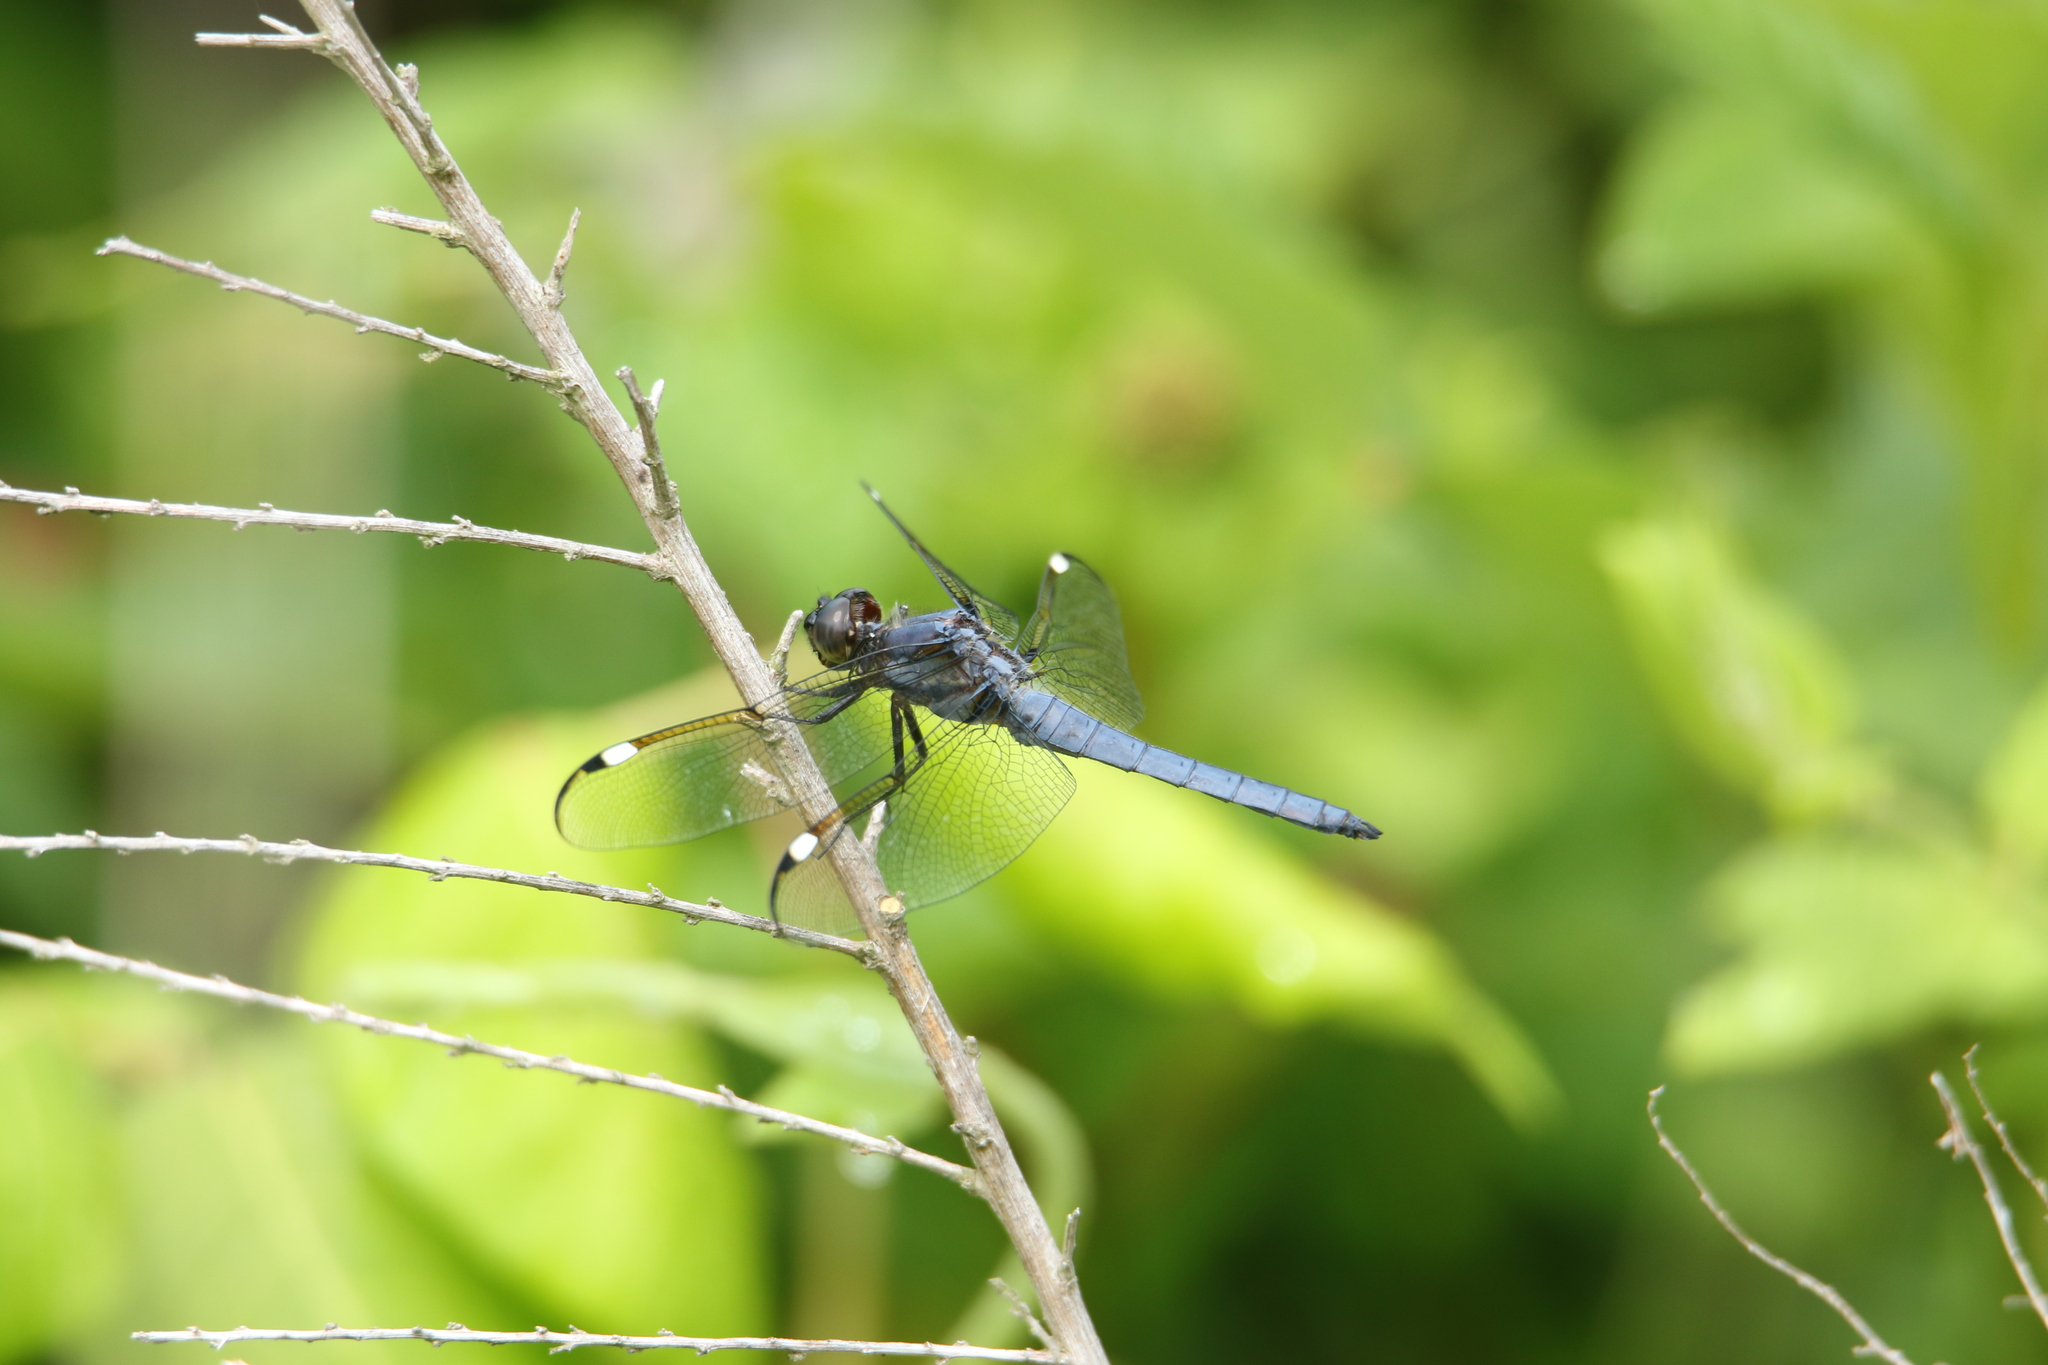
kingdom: Animalia
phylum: Arthropoda
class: Insecta
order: Odonata
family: Libellulidae
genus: Libellula
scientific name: Libellula cyanea
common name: Spangled skimmer
